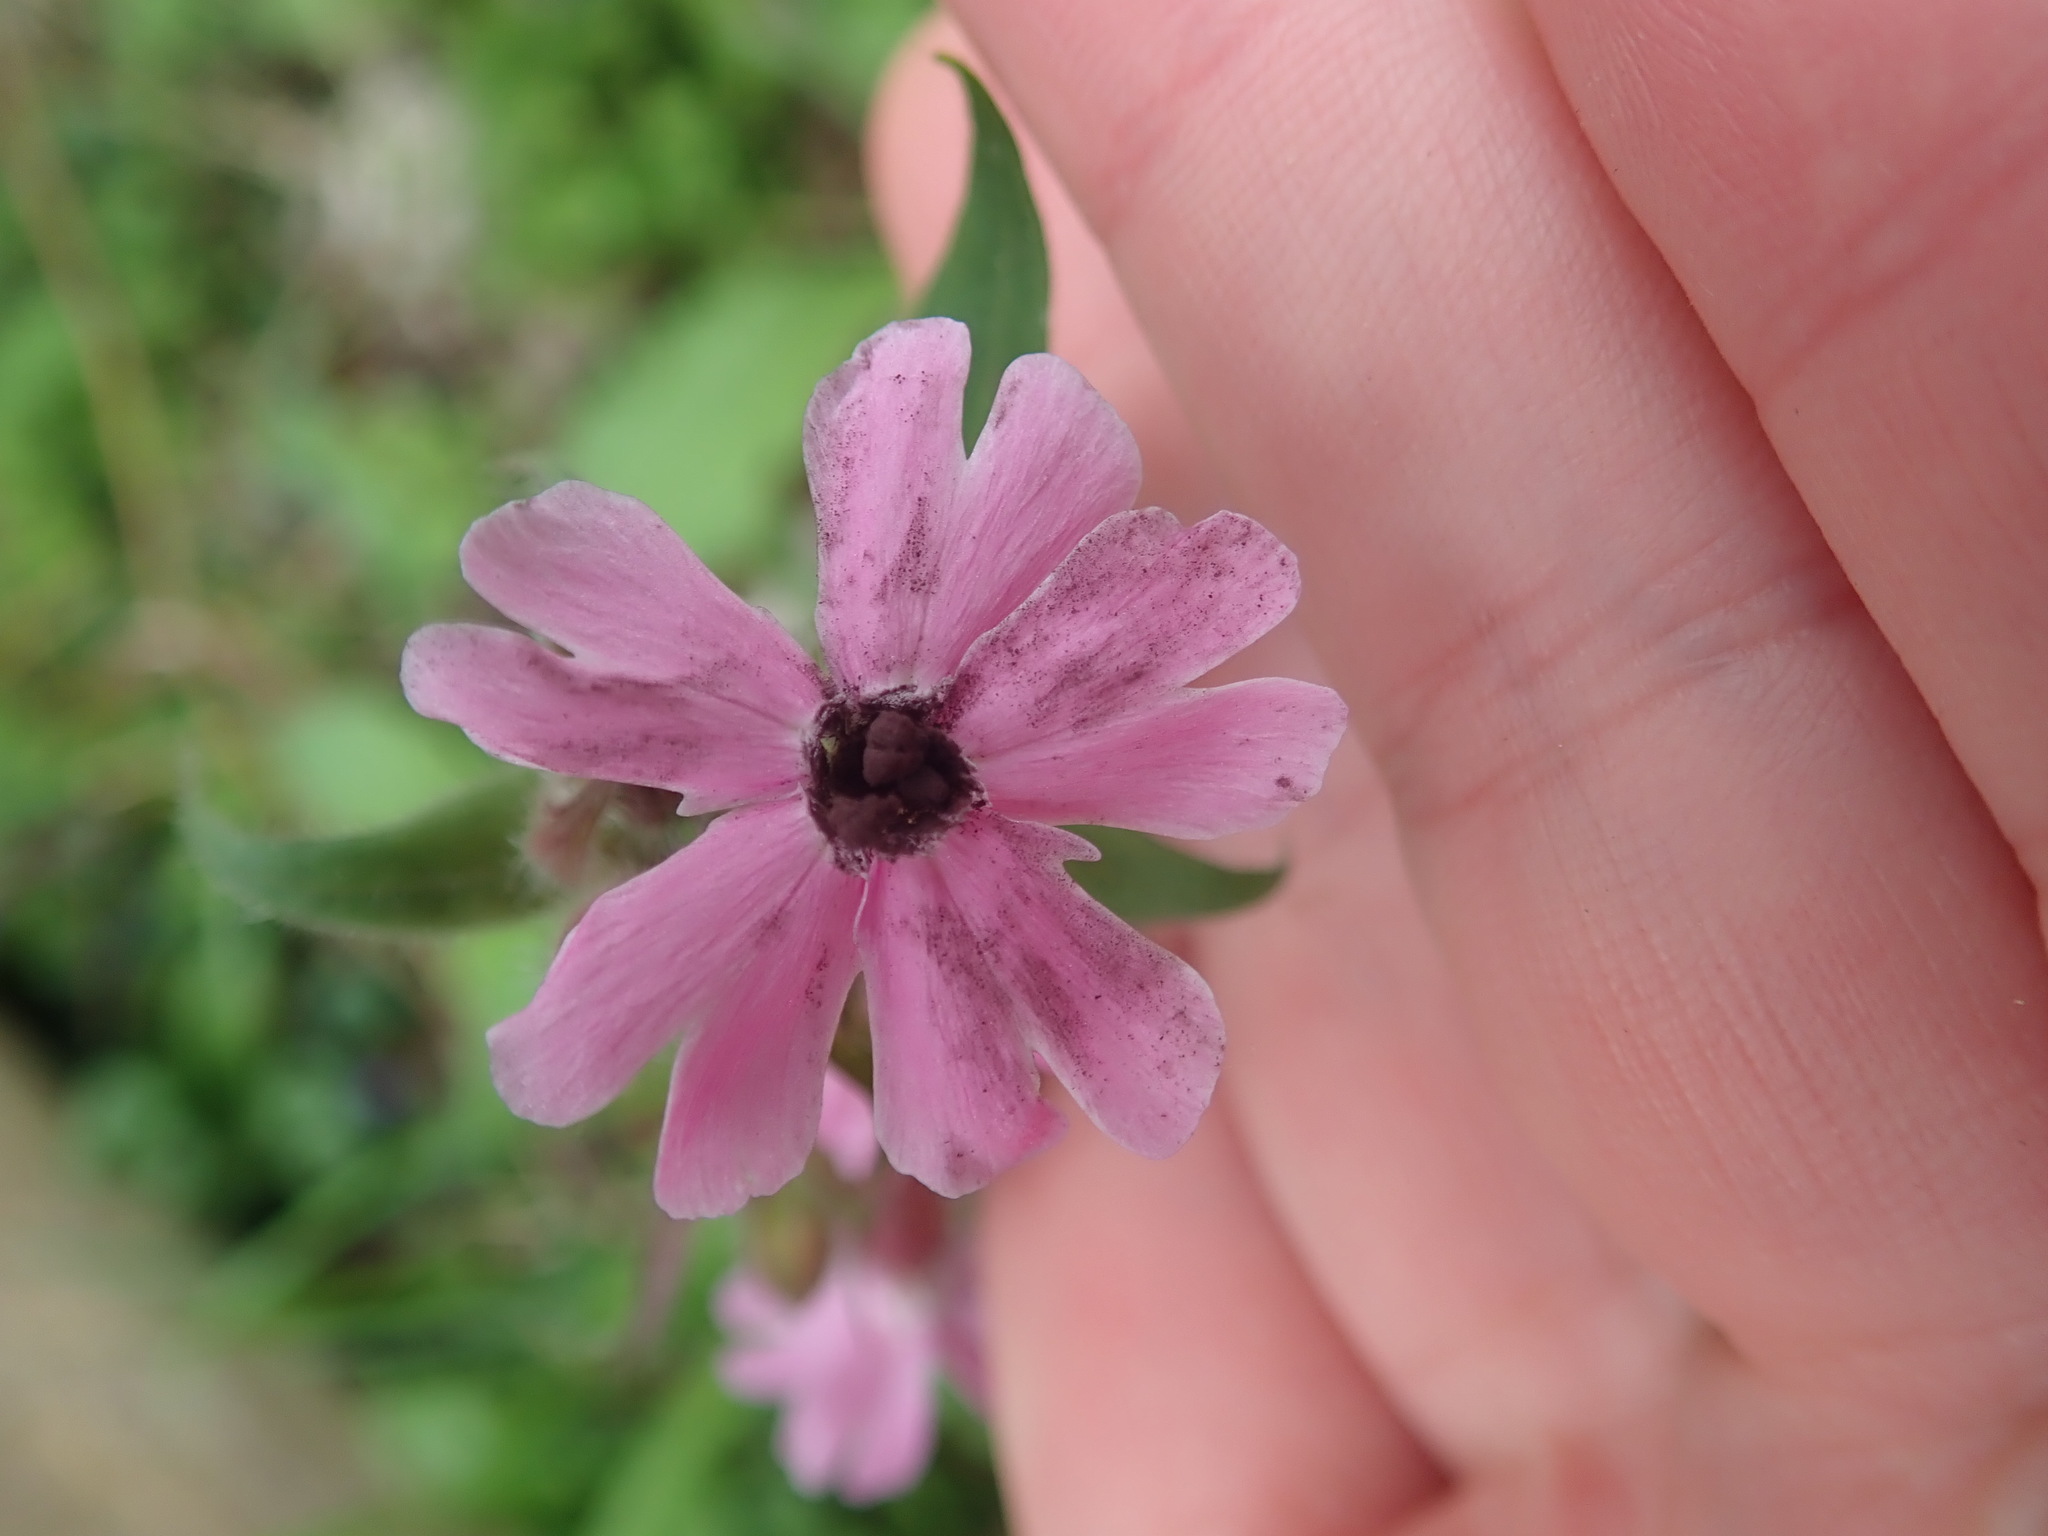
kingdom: Fungi
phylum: Basidiomycota
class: Microbotryomycetes
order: Microbotryales
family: Microbotryaceae
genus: Microbotryum
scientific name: Microbotryum silenes-dioicae
